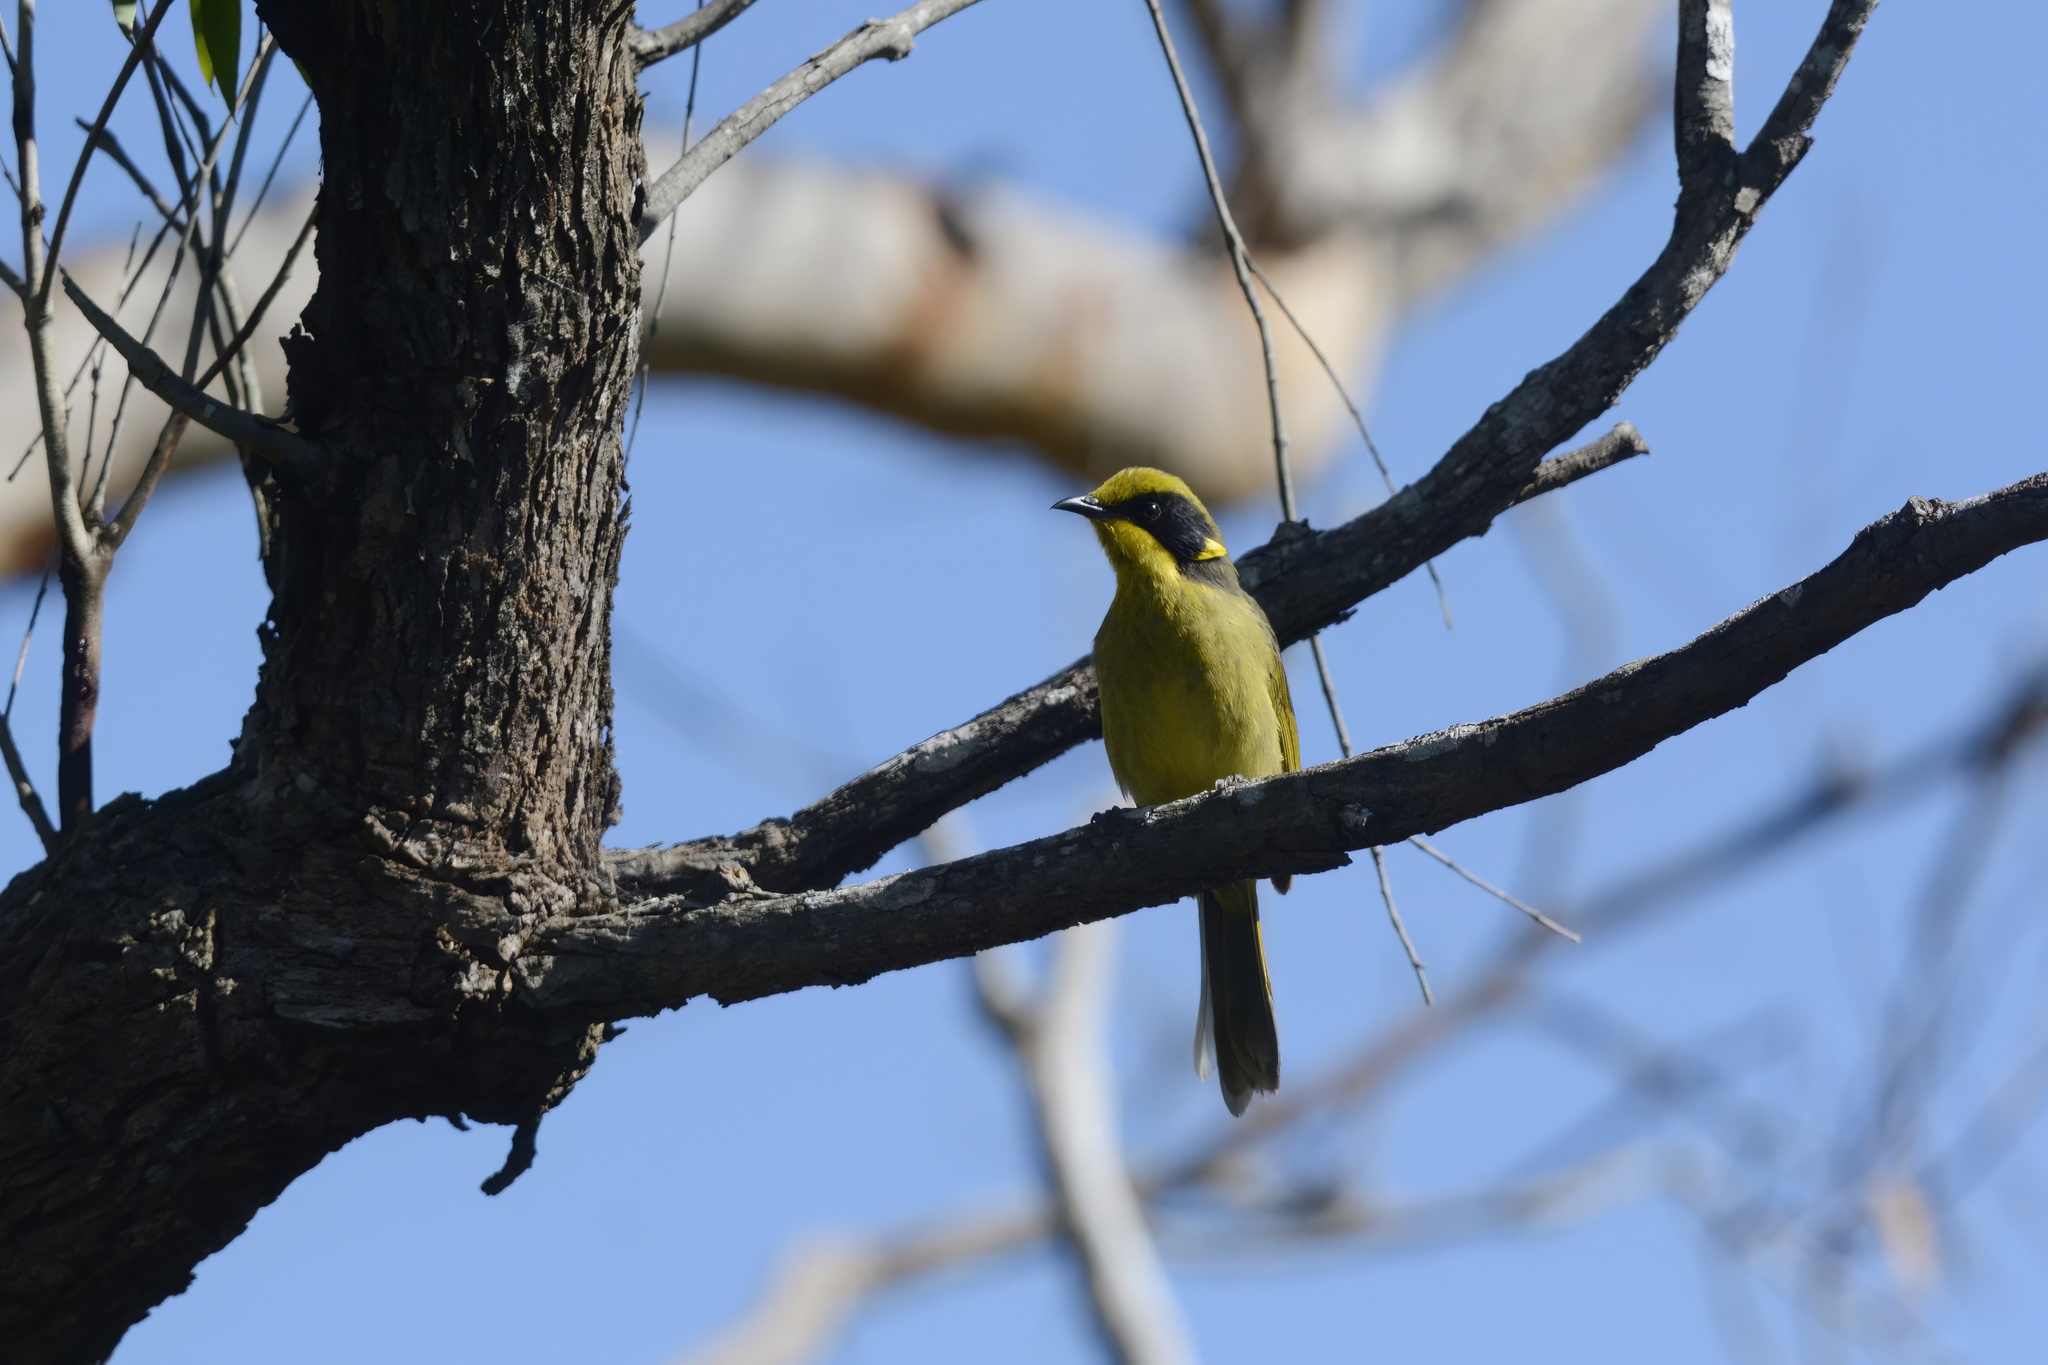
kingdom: Animalia
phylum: Chordata
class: Aves
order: Passeriformes
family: Meliphagidae
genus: Lichenostomus
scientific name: Lichenostomus melanops
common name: Yellow-tufted honeyeater
